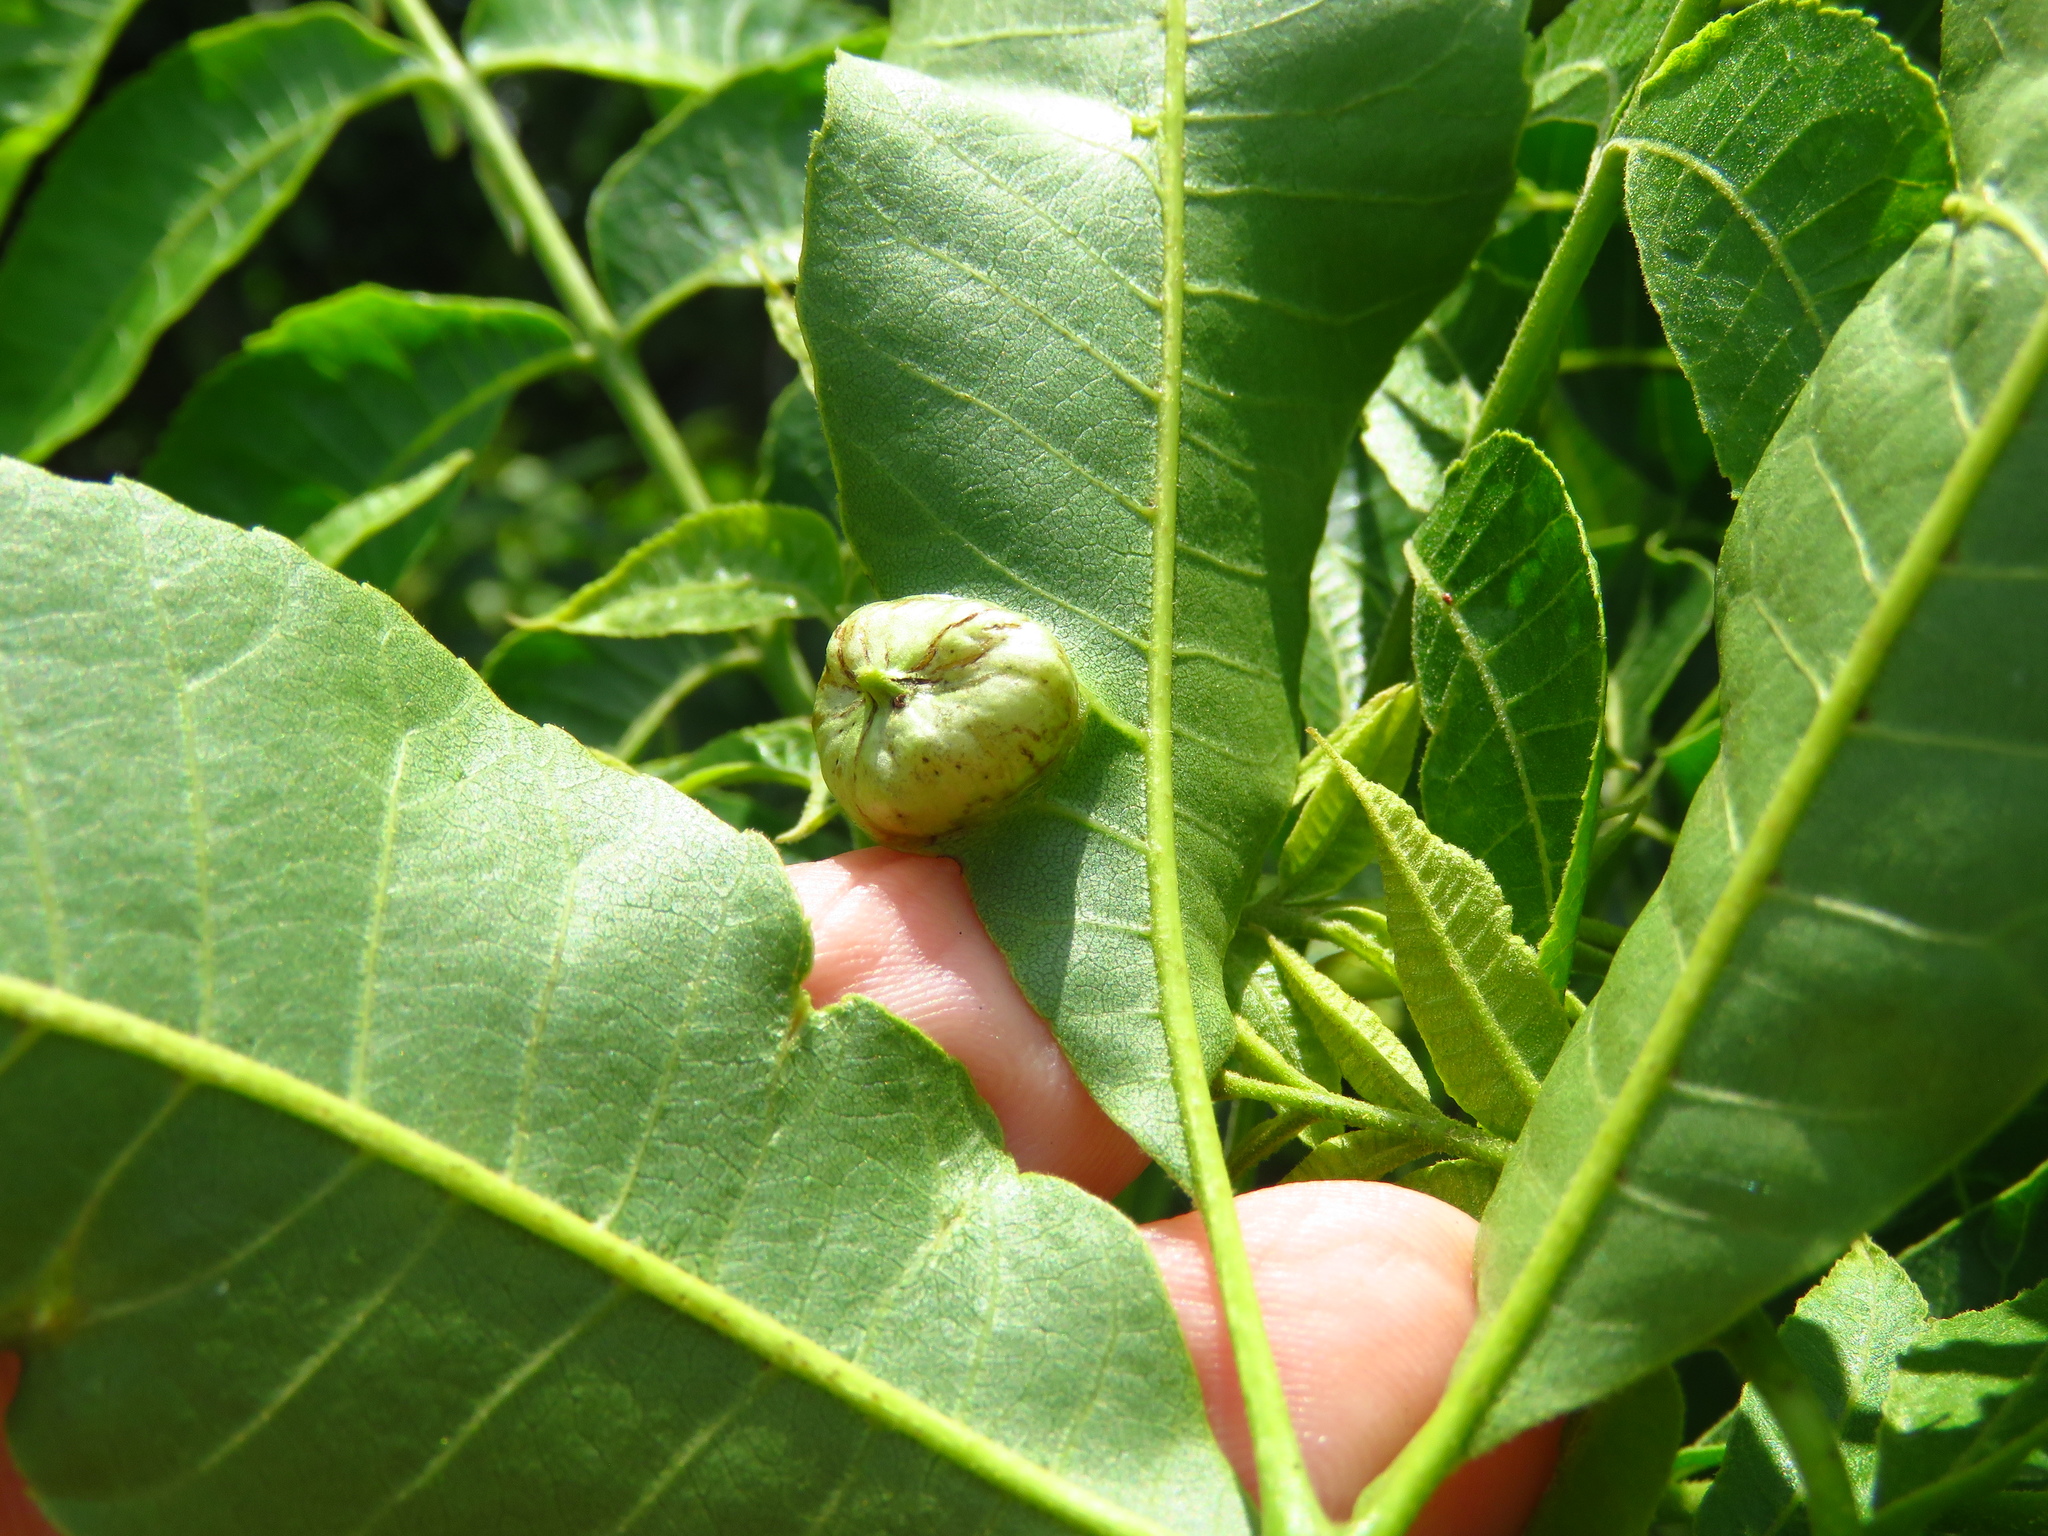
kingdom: Animalia
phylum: Arthropoda
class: Insecta
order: Hemiptera
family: Phylloxeridae
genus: Daktulosphaira
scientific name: Daktulosphaira notabilis
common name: Pecan leaf phylloxera
